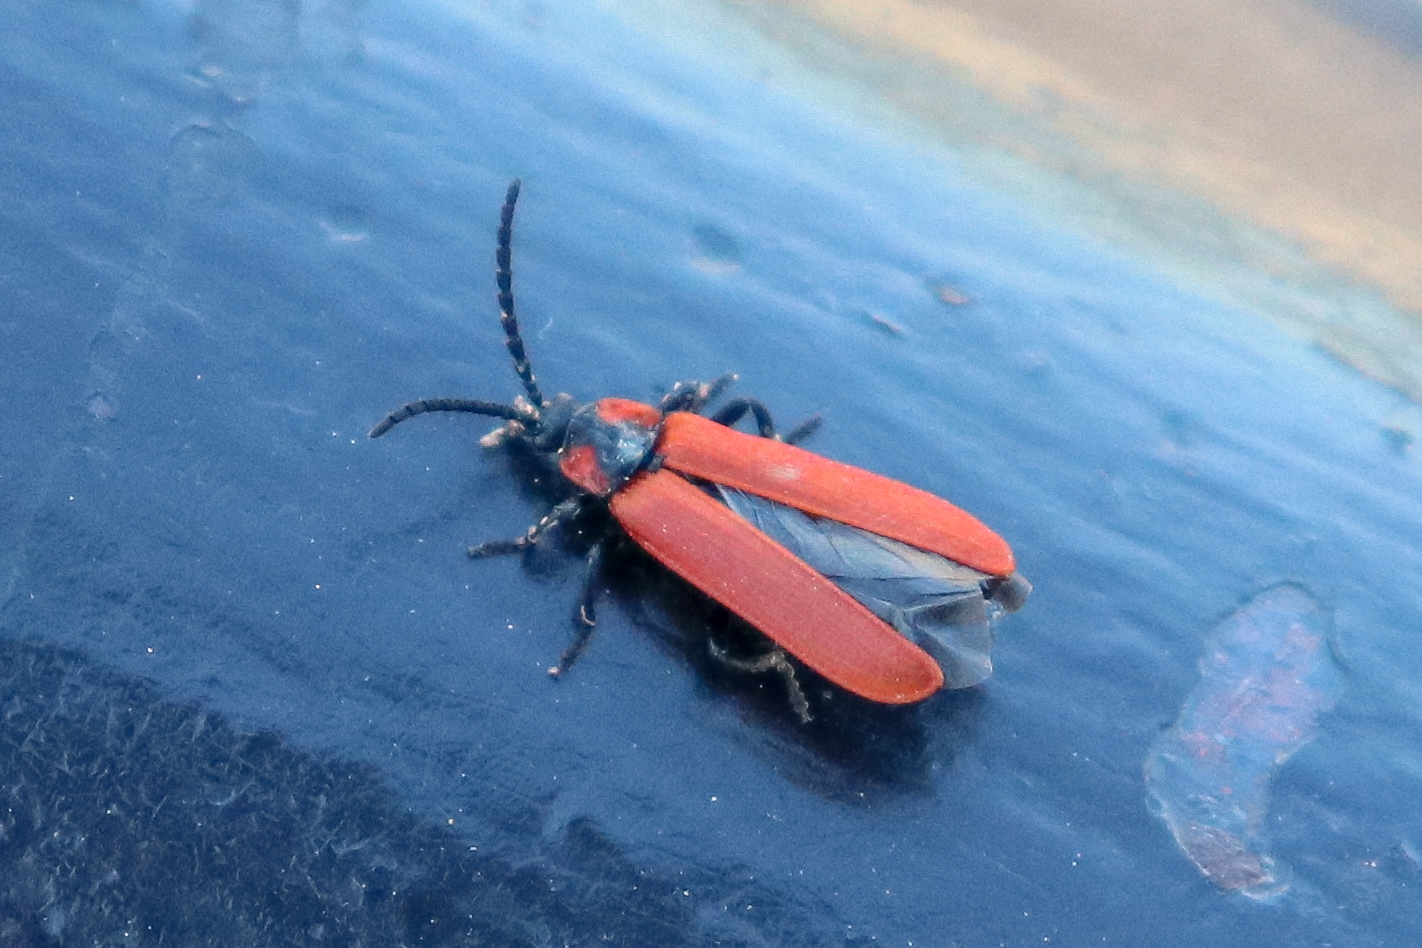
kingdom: Animalia
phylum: Arthropoda
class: Insecta
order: Coleoptera
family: Lycidae
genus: Lygistopterus
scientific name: Lygistopterus sanguineus
